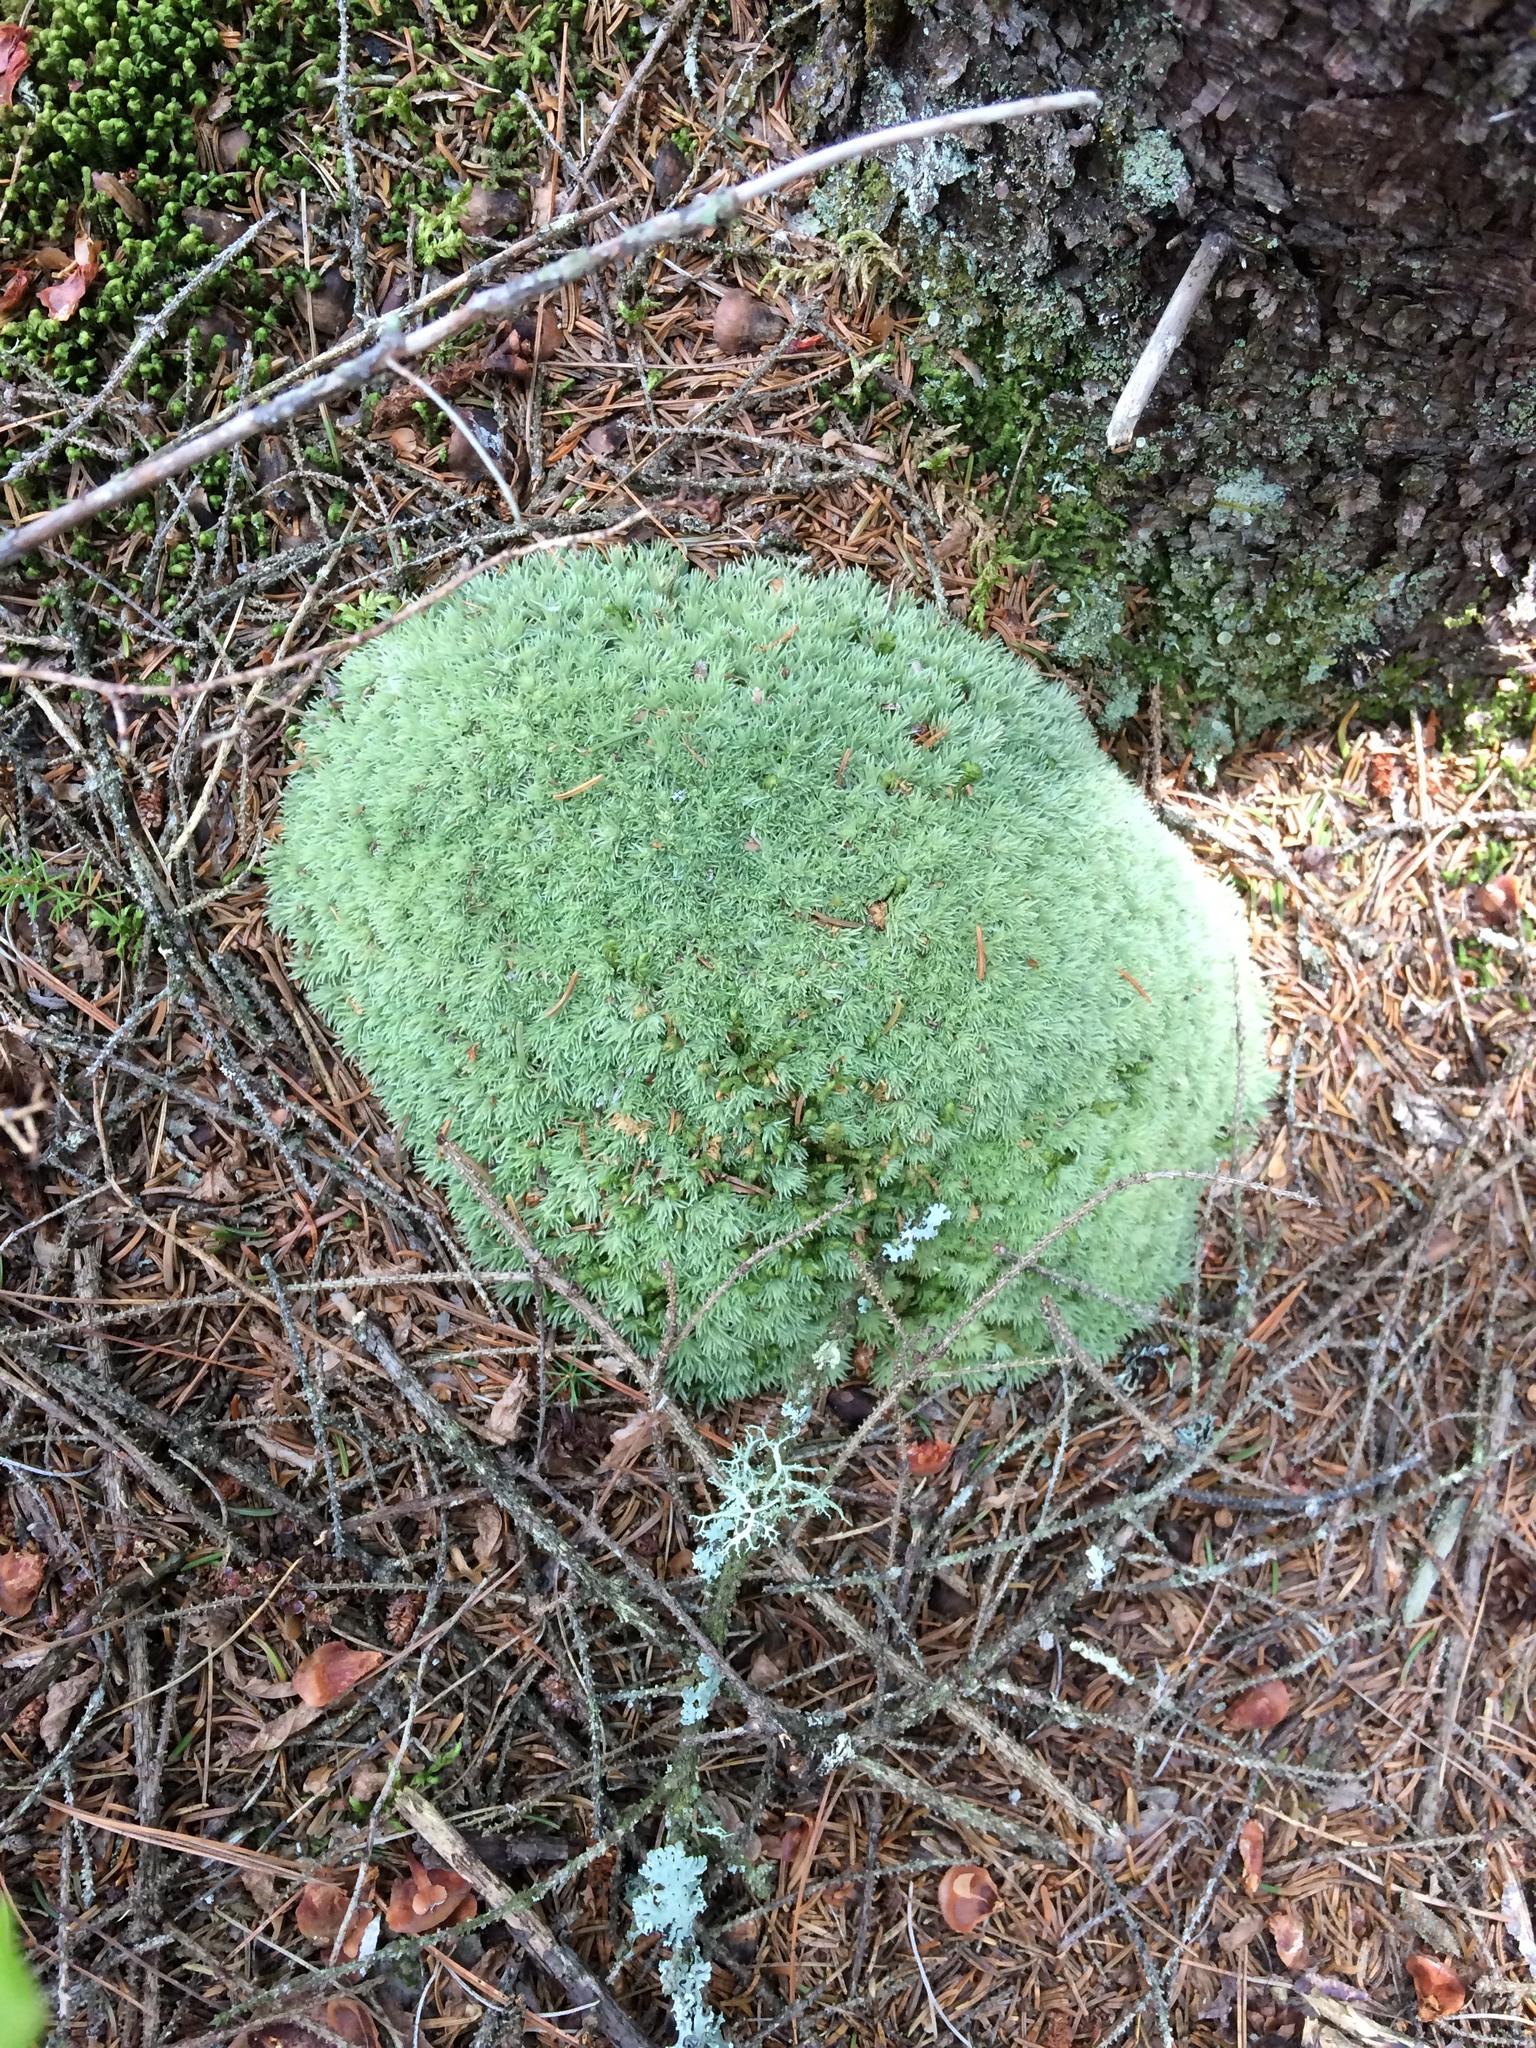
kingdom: Plantae
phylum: Bryophyta
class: Bryopsida
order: Dicranales
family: Leucobryaceae
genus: Leucobryum
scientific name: Leucobryum glaucum
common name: Large white-moss
